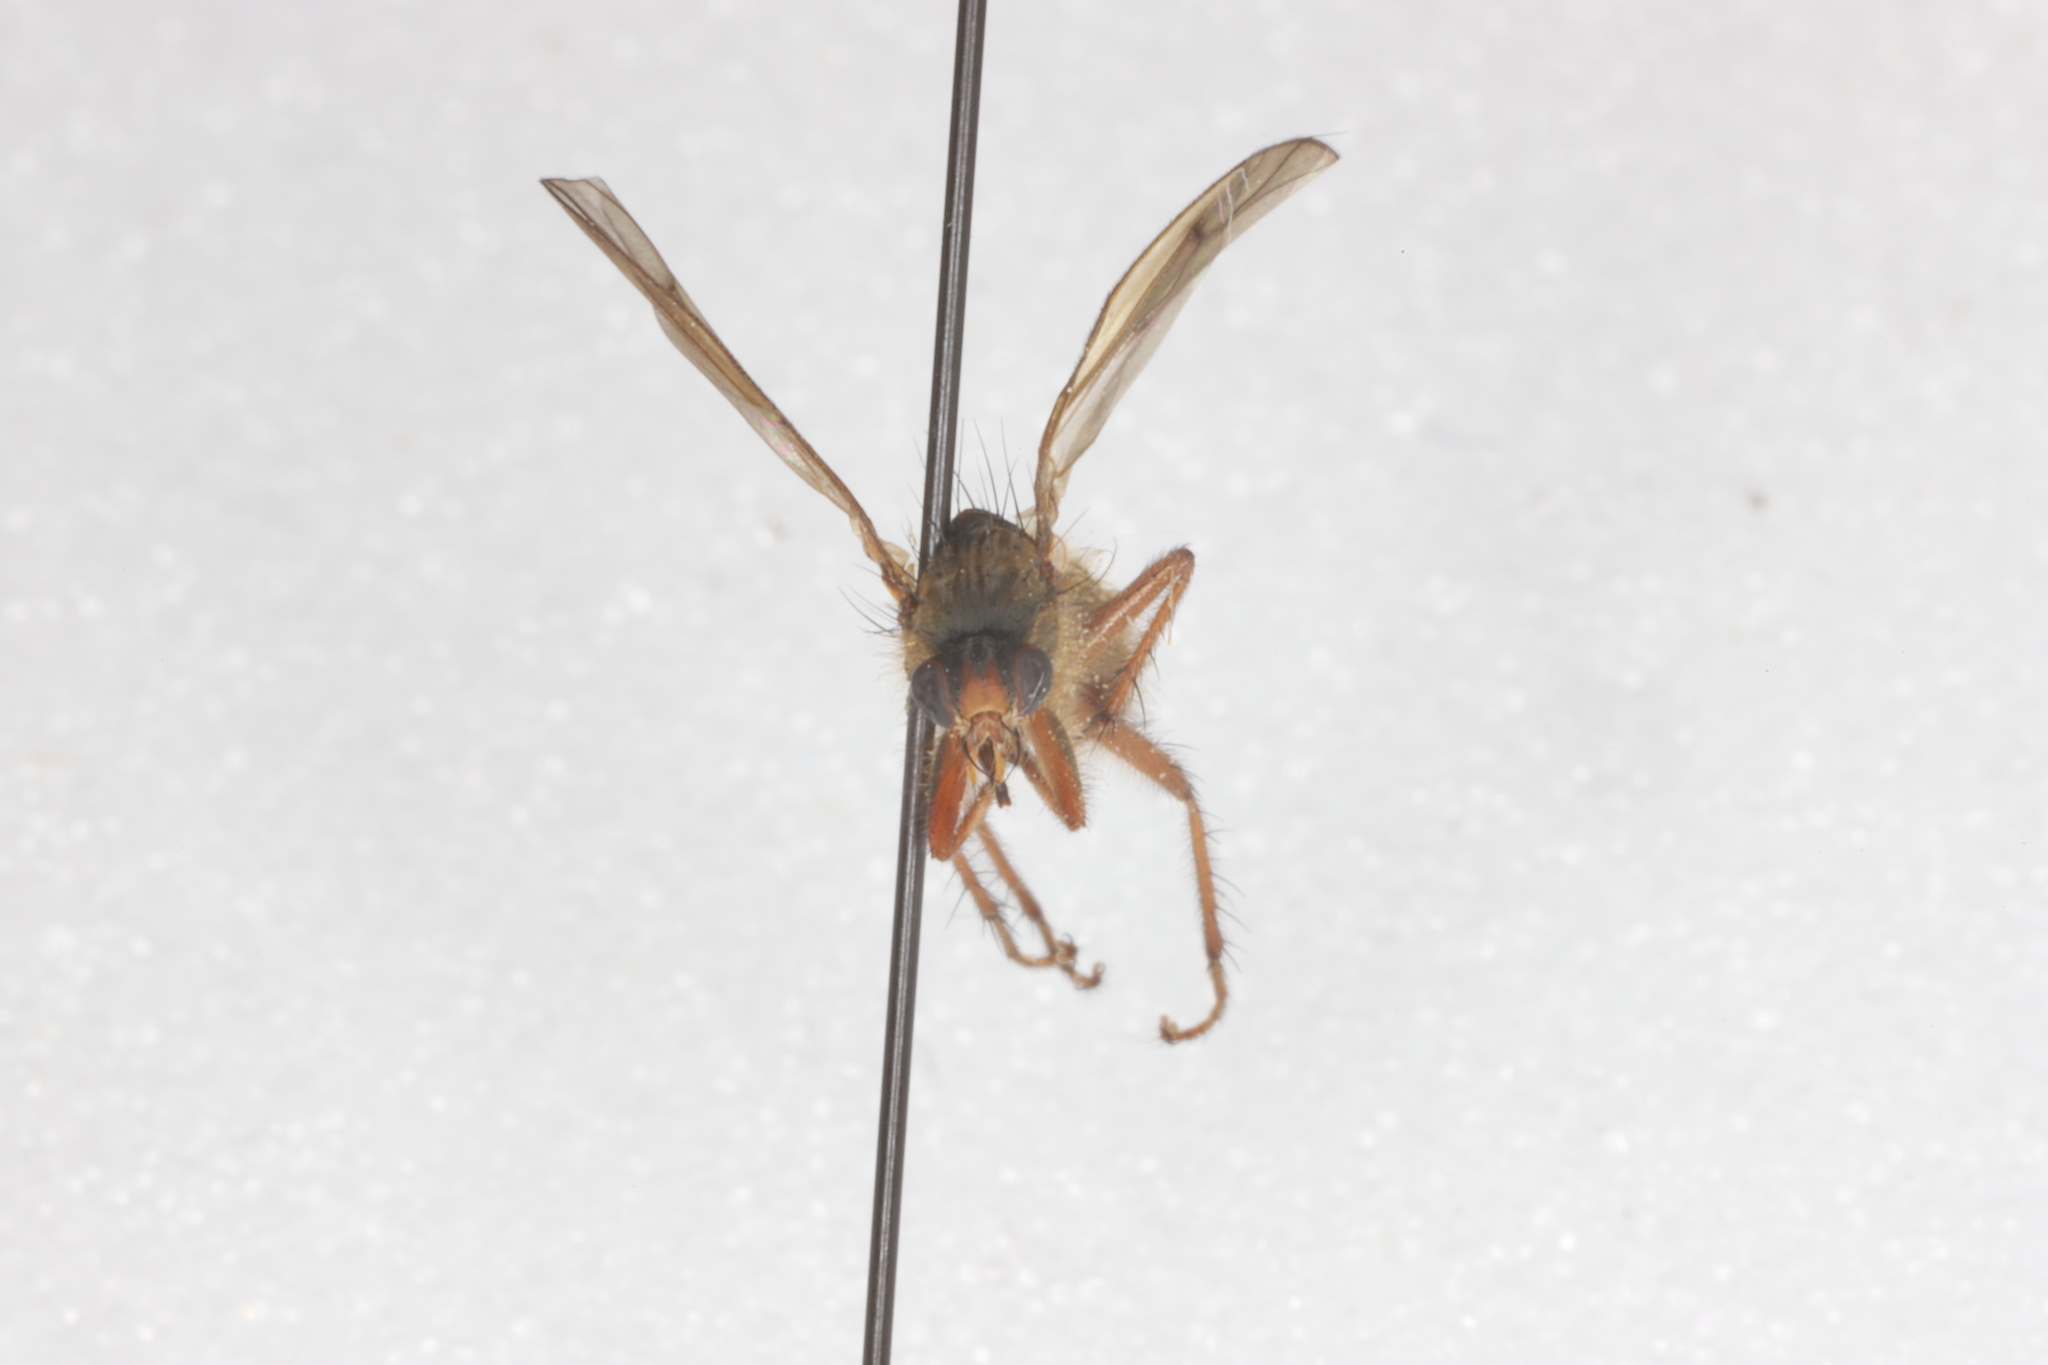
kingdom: Animalia
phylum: Arthropoda
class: Insecta
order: Diptera
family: Scathophagidae
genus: Scathophaga
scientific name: Scathophaga furcata
